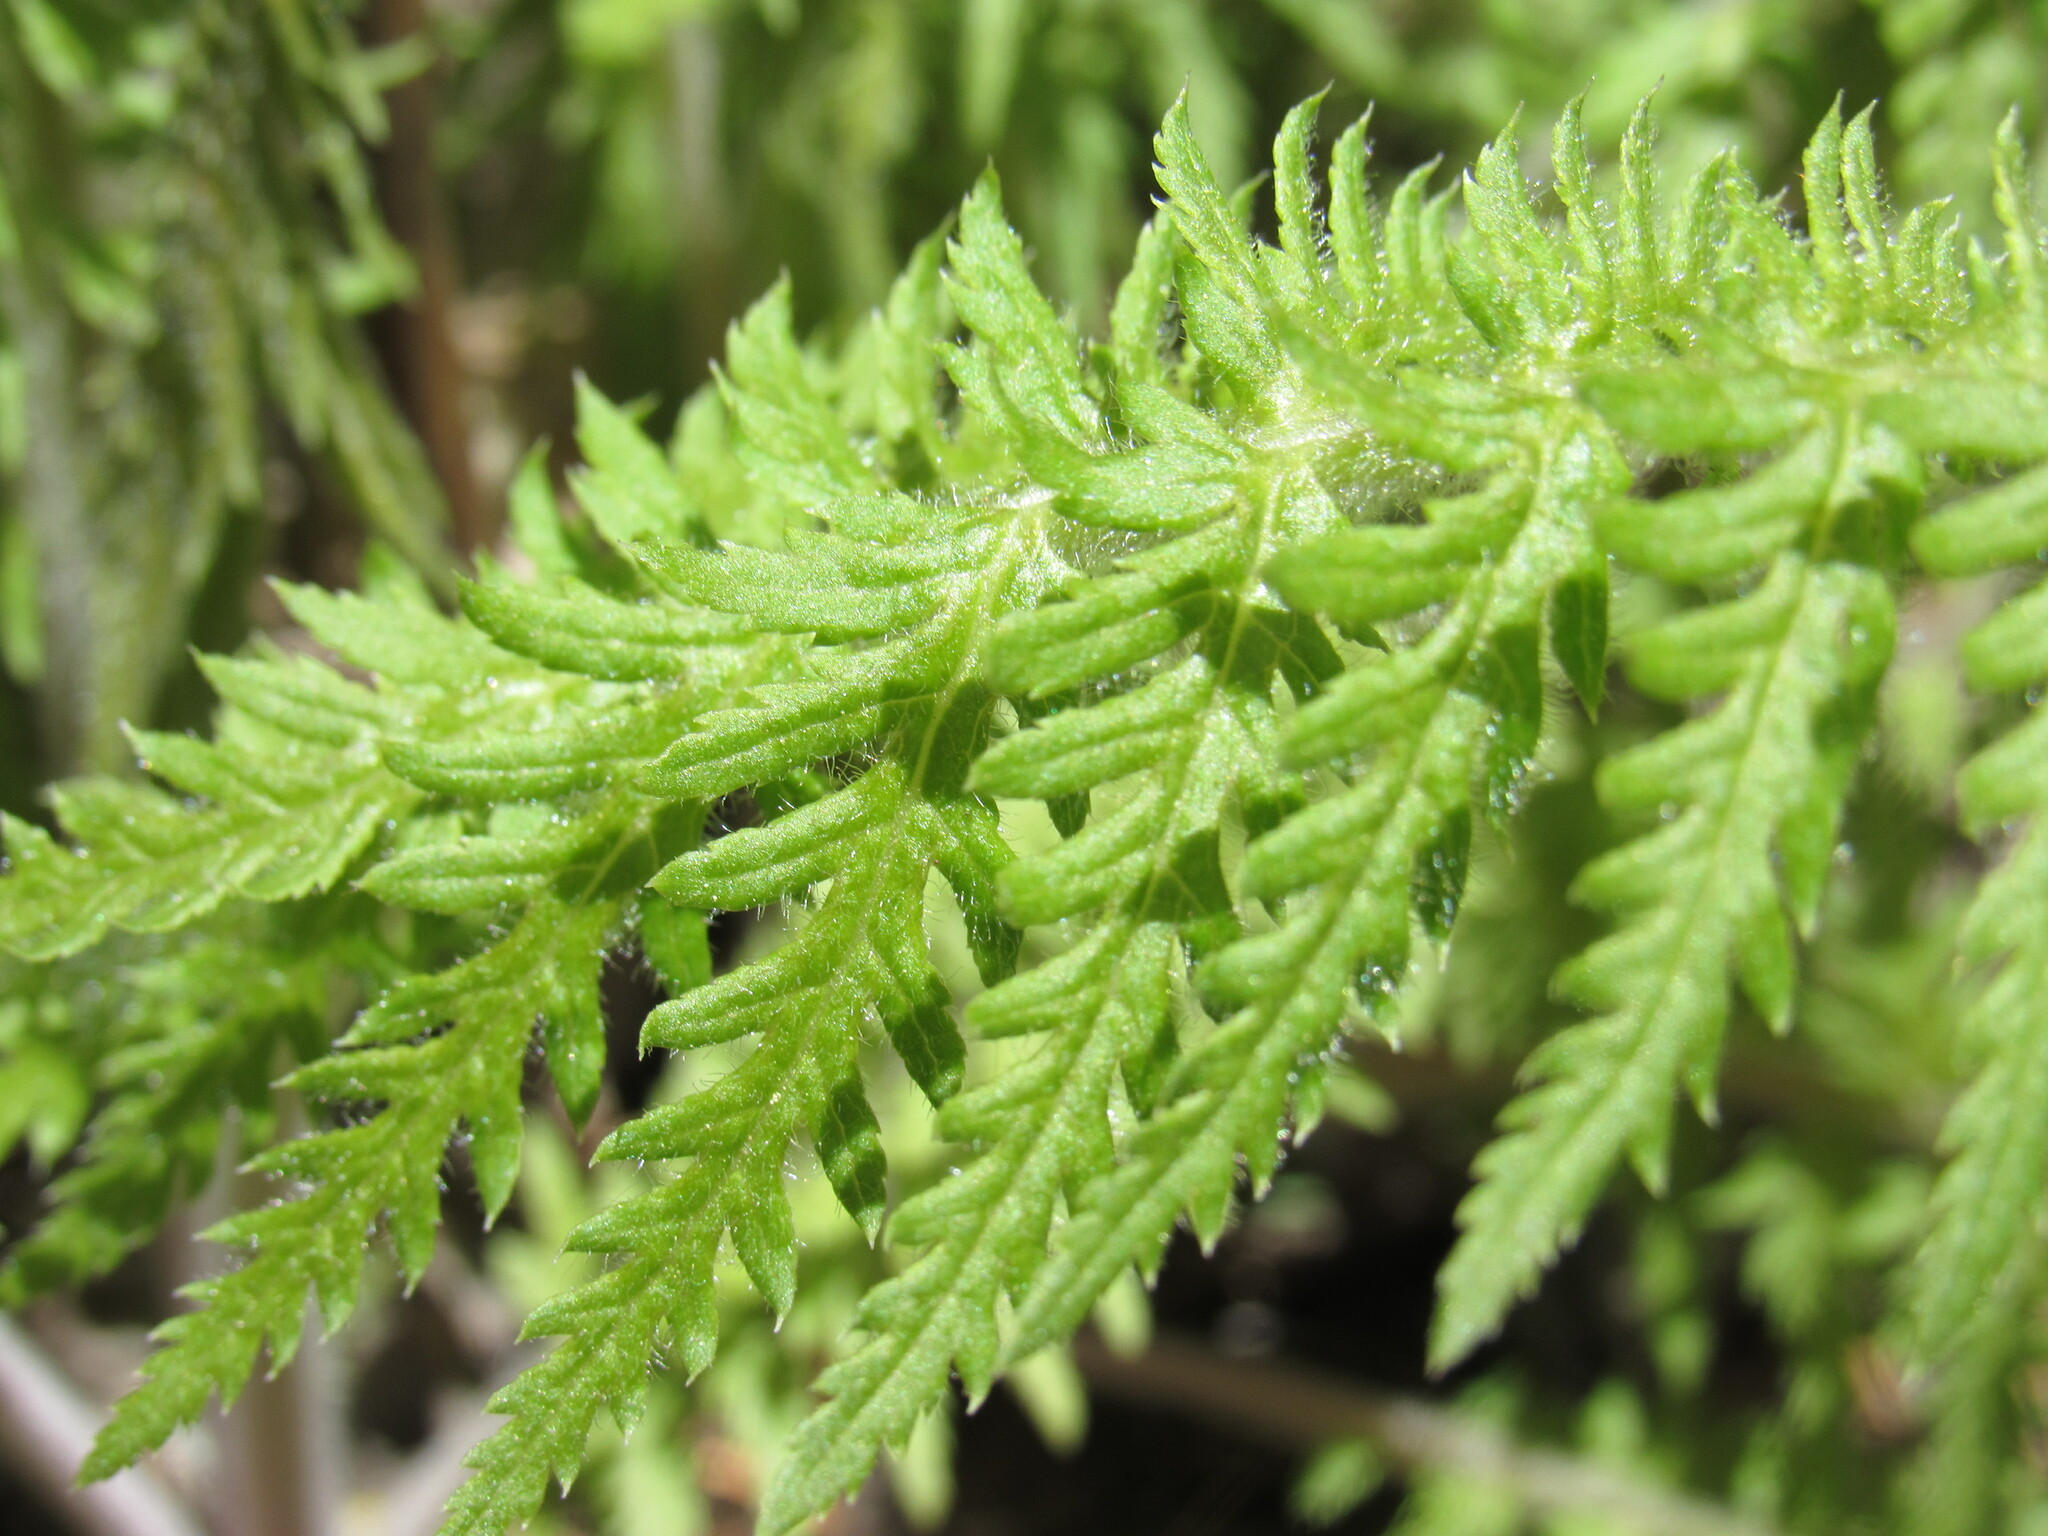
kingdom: Plantae
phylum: Tracheophyta
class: Magnoliopsida
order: Lamiales
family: Orobanchaceae
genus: Pedicularis
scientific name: Pedicularis procera
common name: Gray's lousewort
